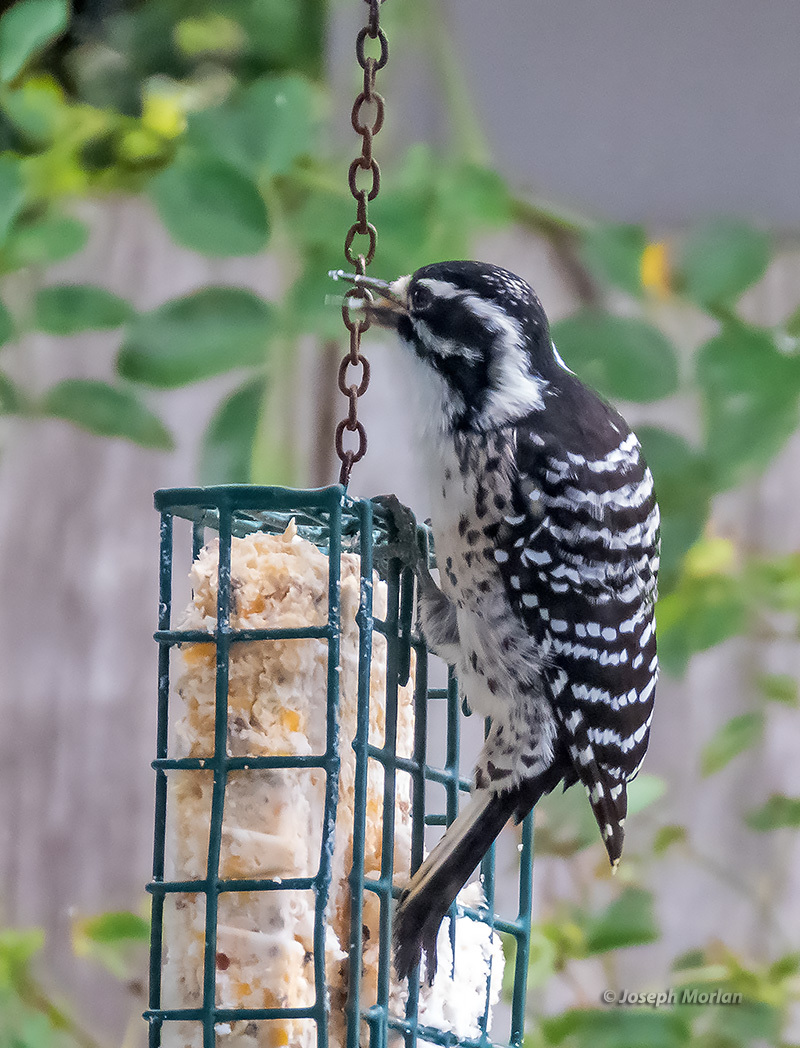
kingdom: Animalia
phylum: Chordata
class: Aves
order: Piciformes
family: Picidae
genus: Dryobates
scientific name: Dryobates nuttallii
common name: Nuttall's woodpecker
